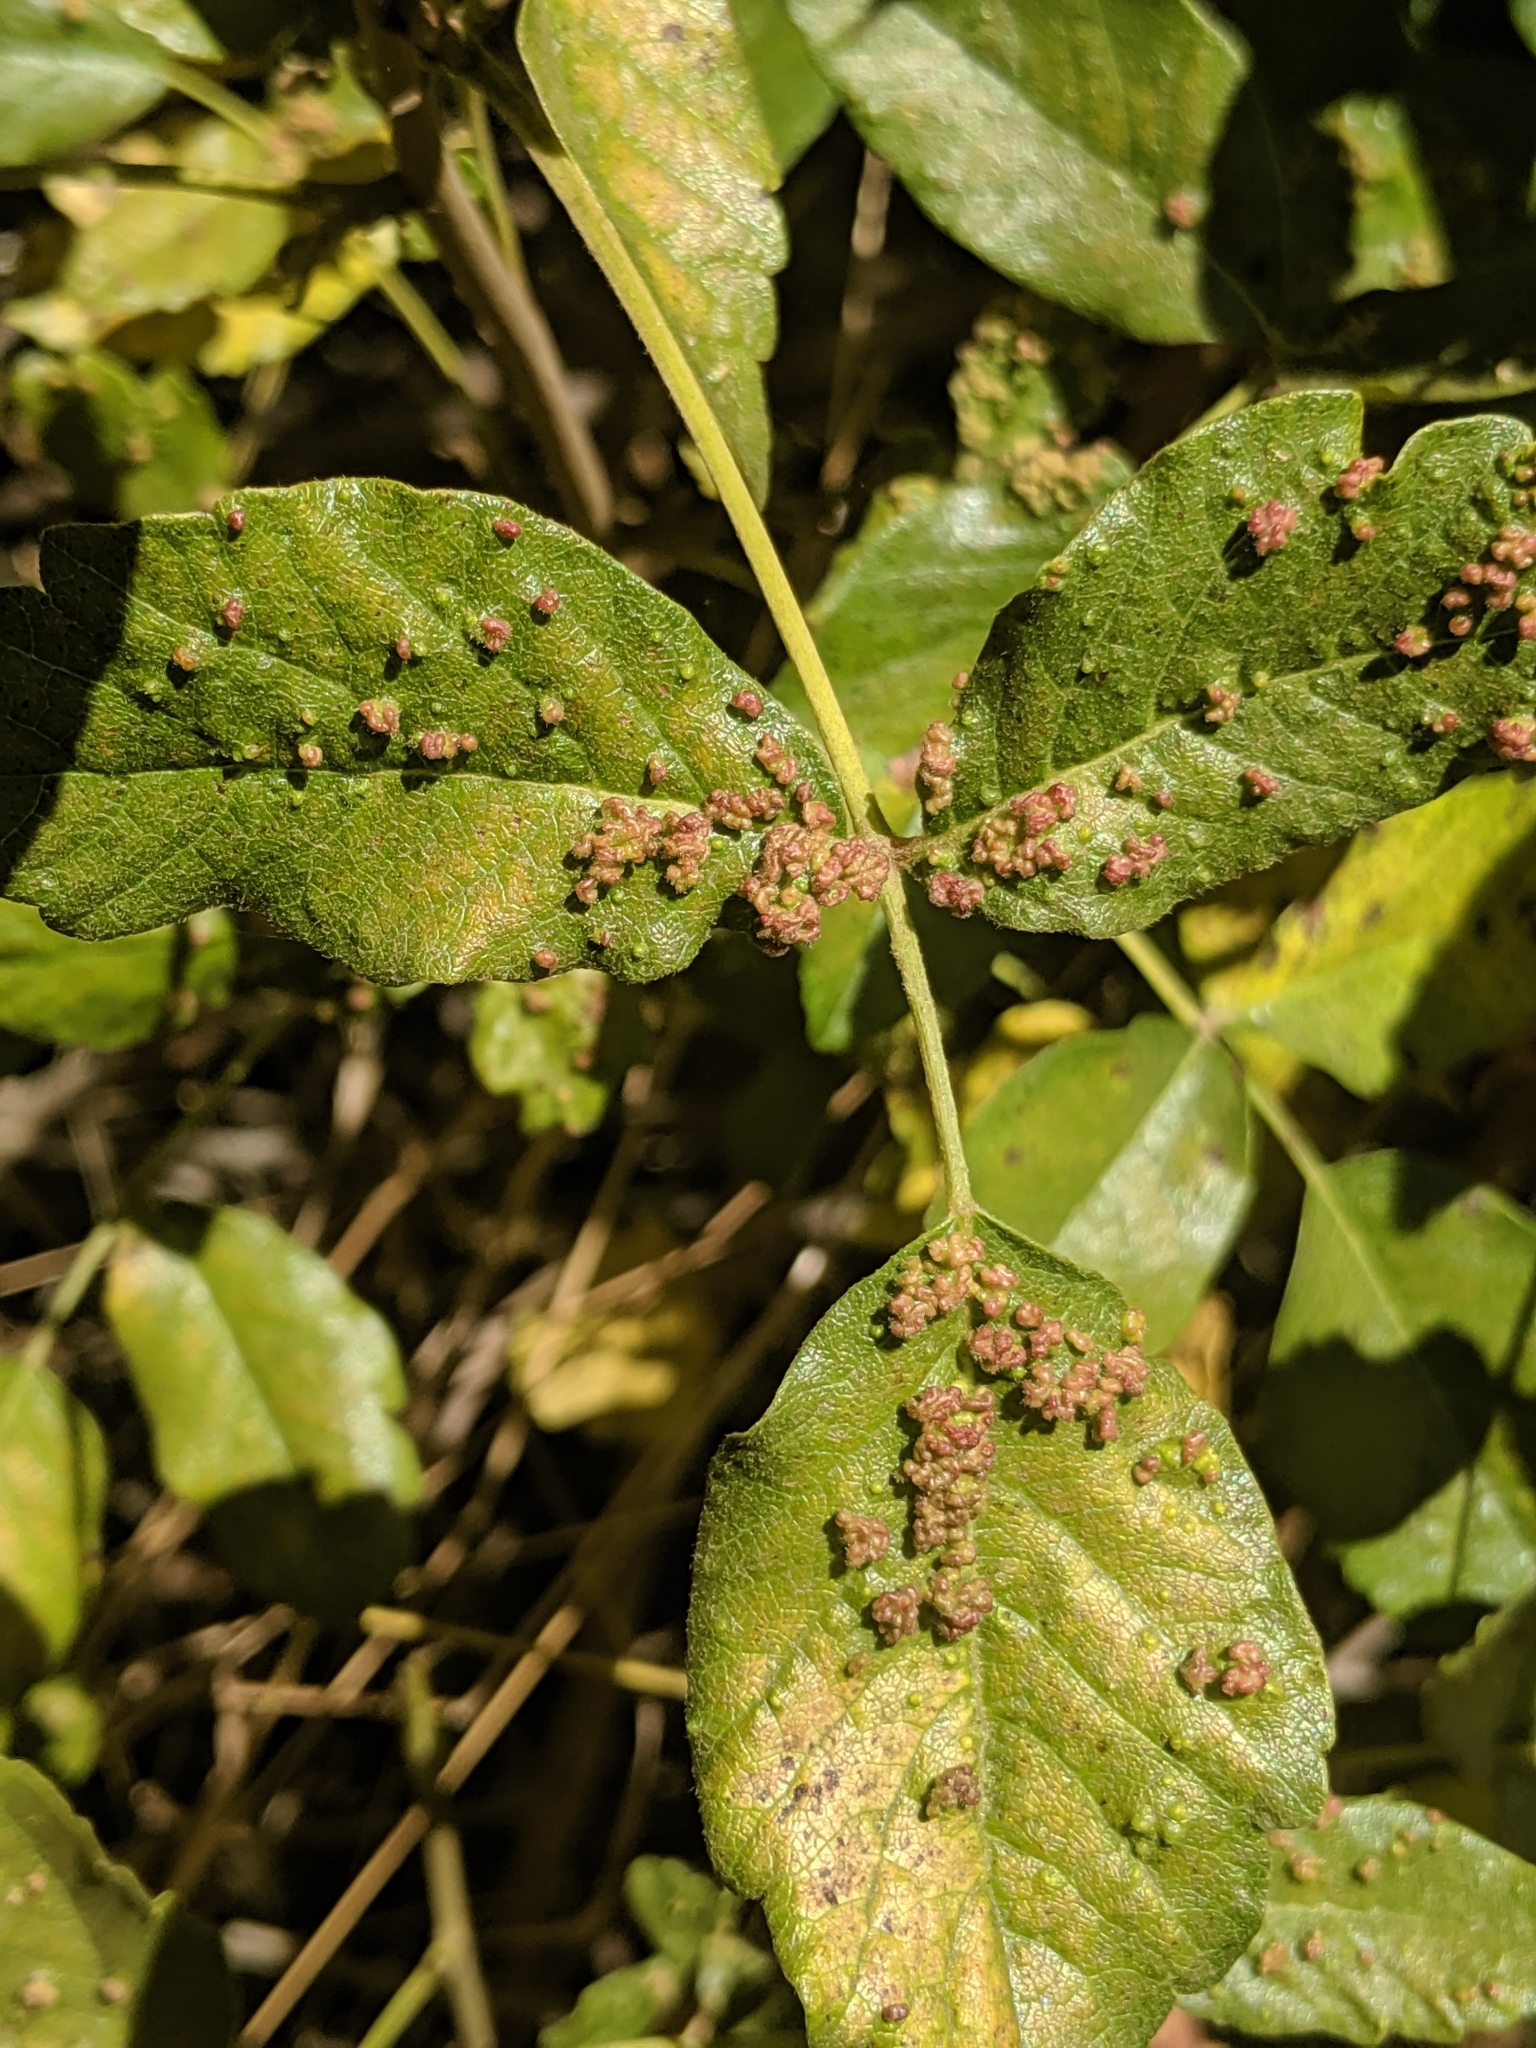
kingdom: Animalia
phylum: Arthropoda
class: Arachnida
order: Trombidiformes
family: Eriophyidae
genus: Aculops
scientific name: Aculops
